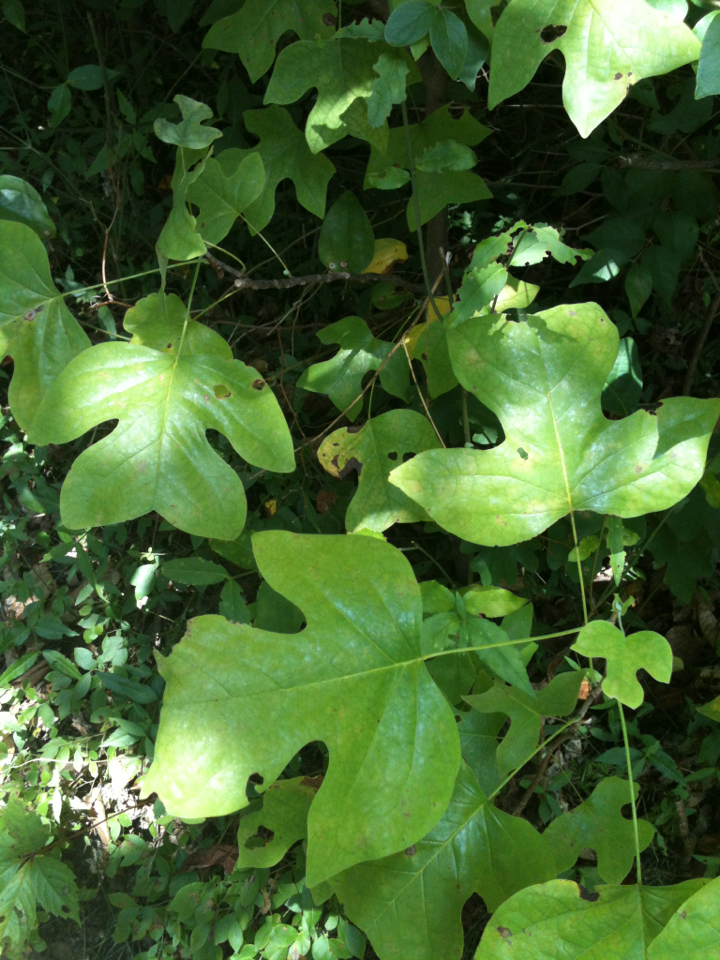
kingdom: Plantae
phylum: Tracheophyta
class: Magnoliopsida
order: Magnoliales
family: Magnoliaceae
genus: Liriodendron
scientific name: Liriodendron tulipifera
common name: Tulip tree
